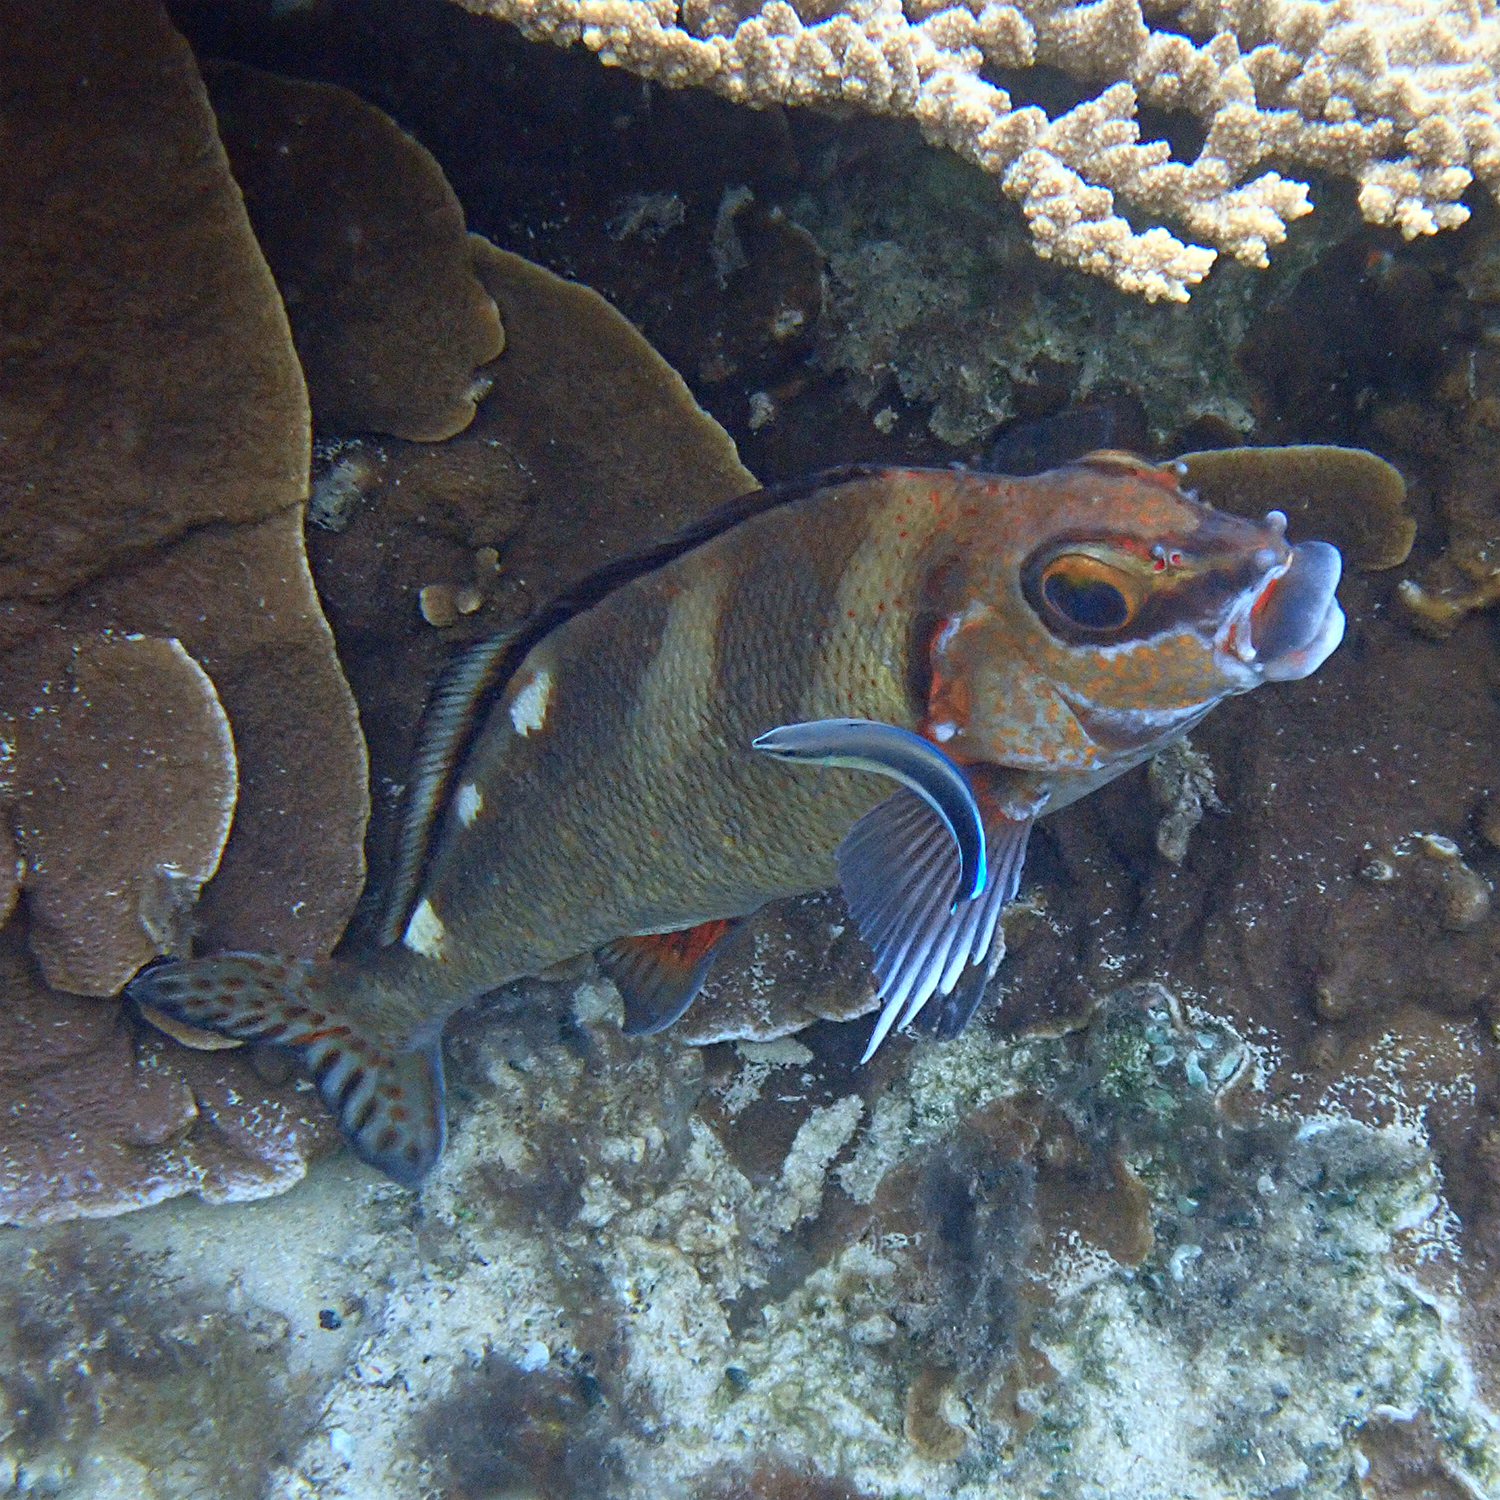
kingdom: Animalia
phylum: Chordata
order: Perciformes
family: Latridae
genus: Morwong
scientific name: Morwong ephippium
